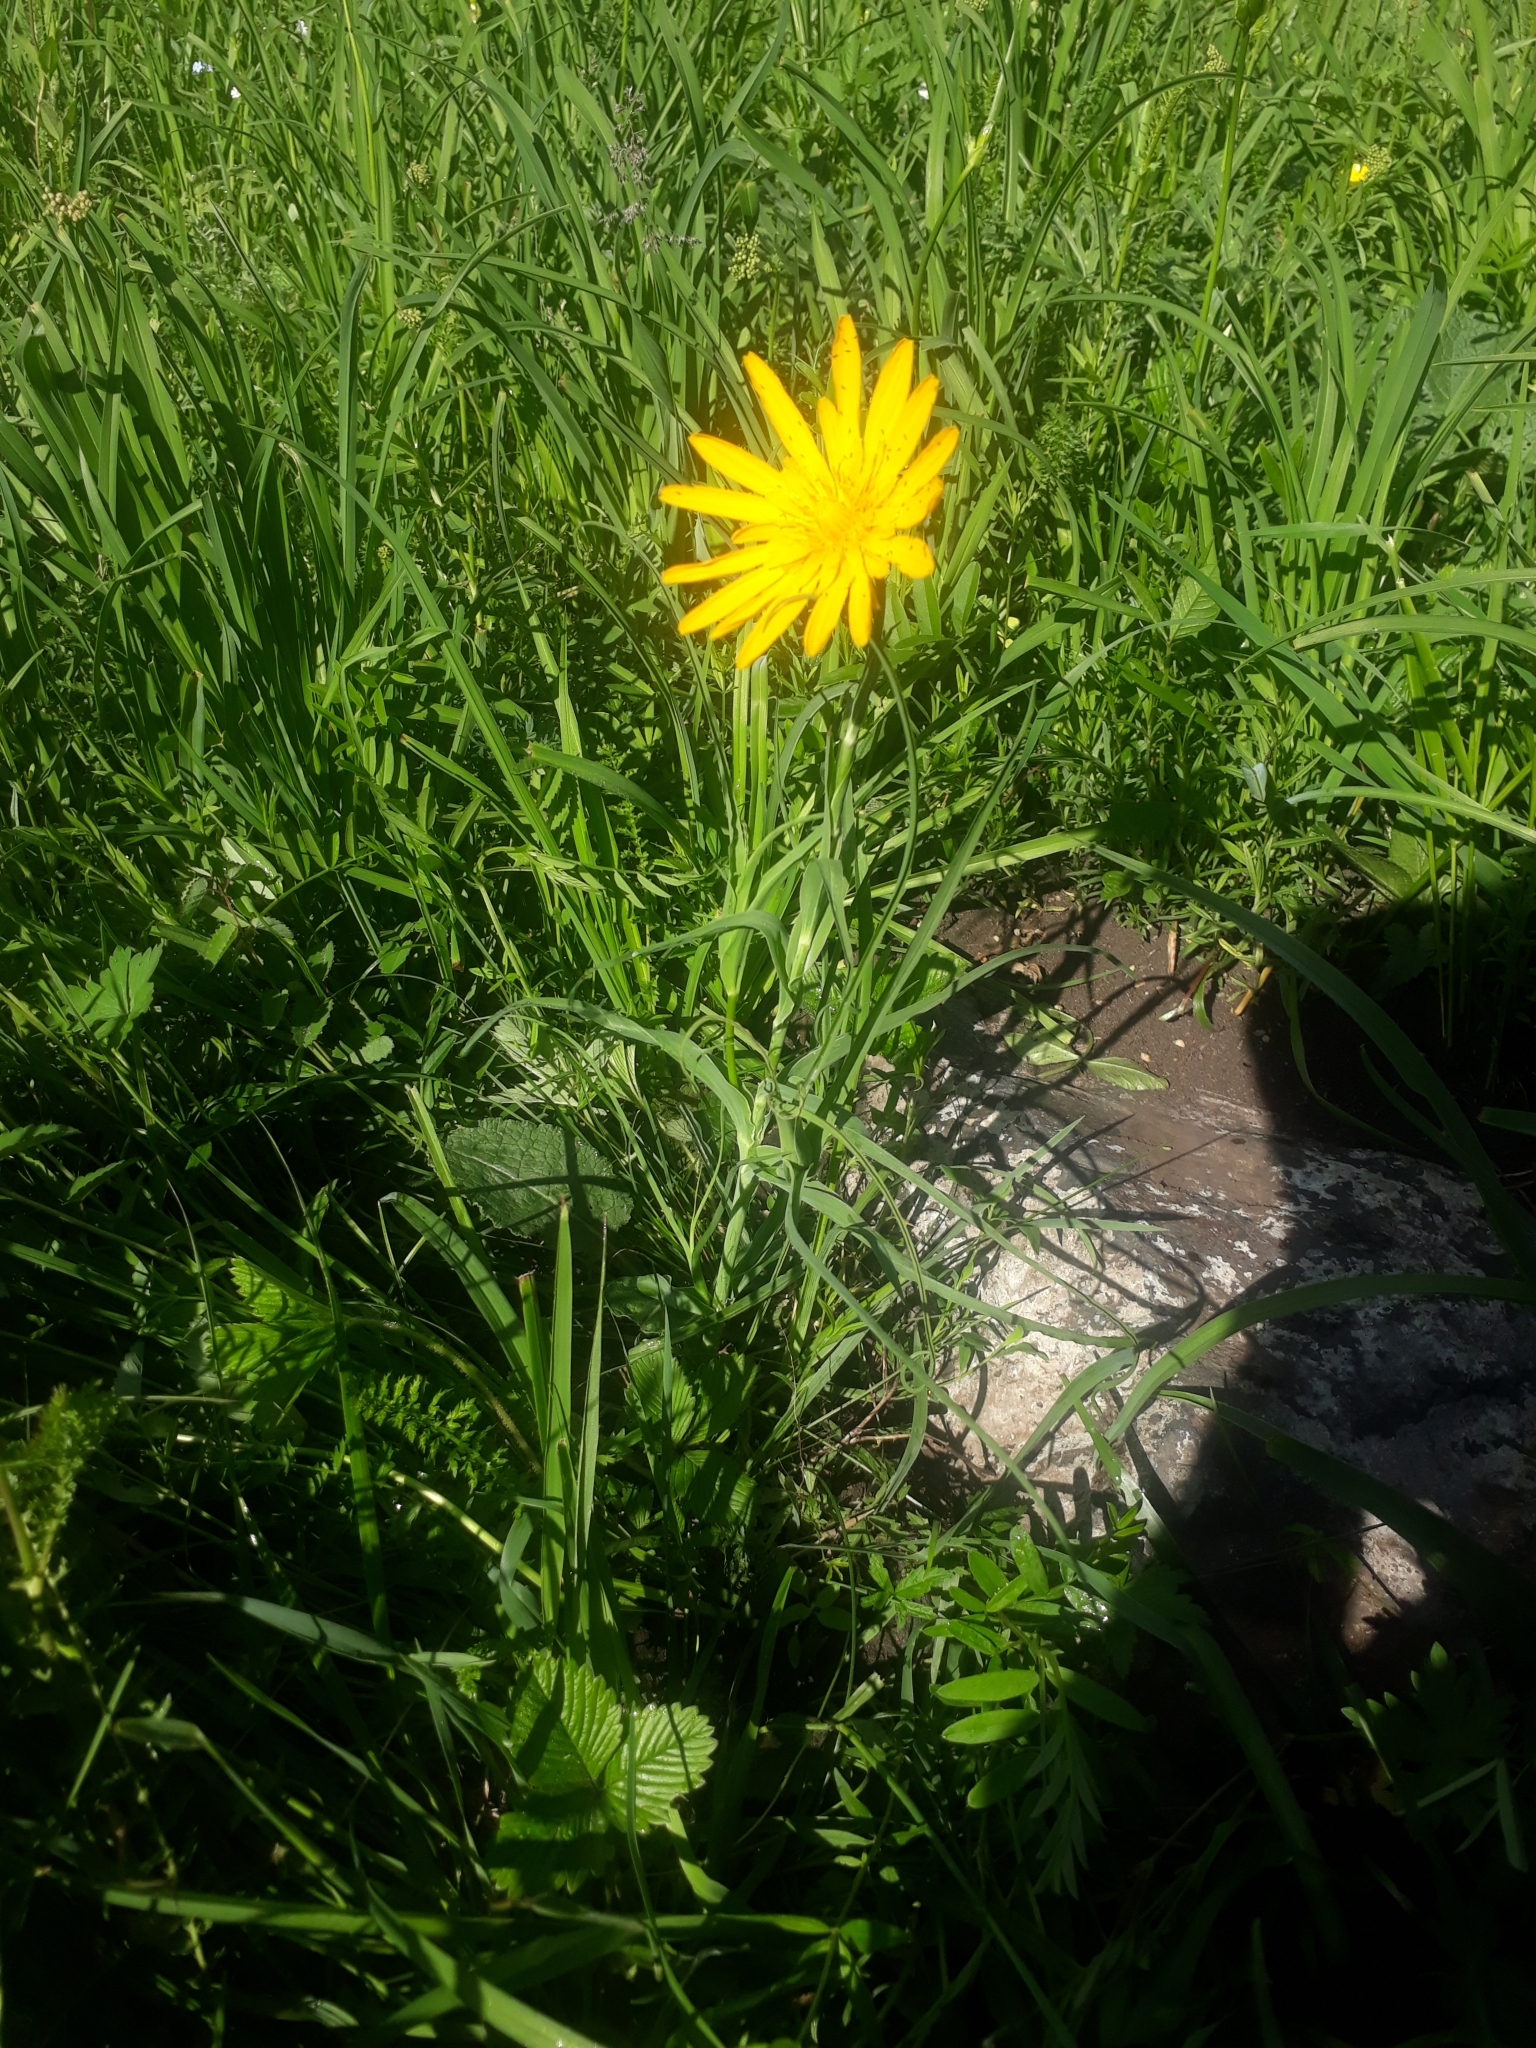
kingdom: Plantae
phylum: Tracheophyta
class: Magnoliopsida
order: Asterales
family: Asteraceae
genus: Tragopogon
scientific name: Tragopogon orientalis
